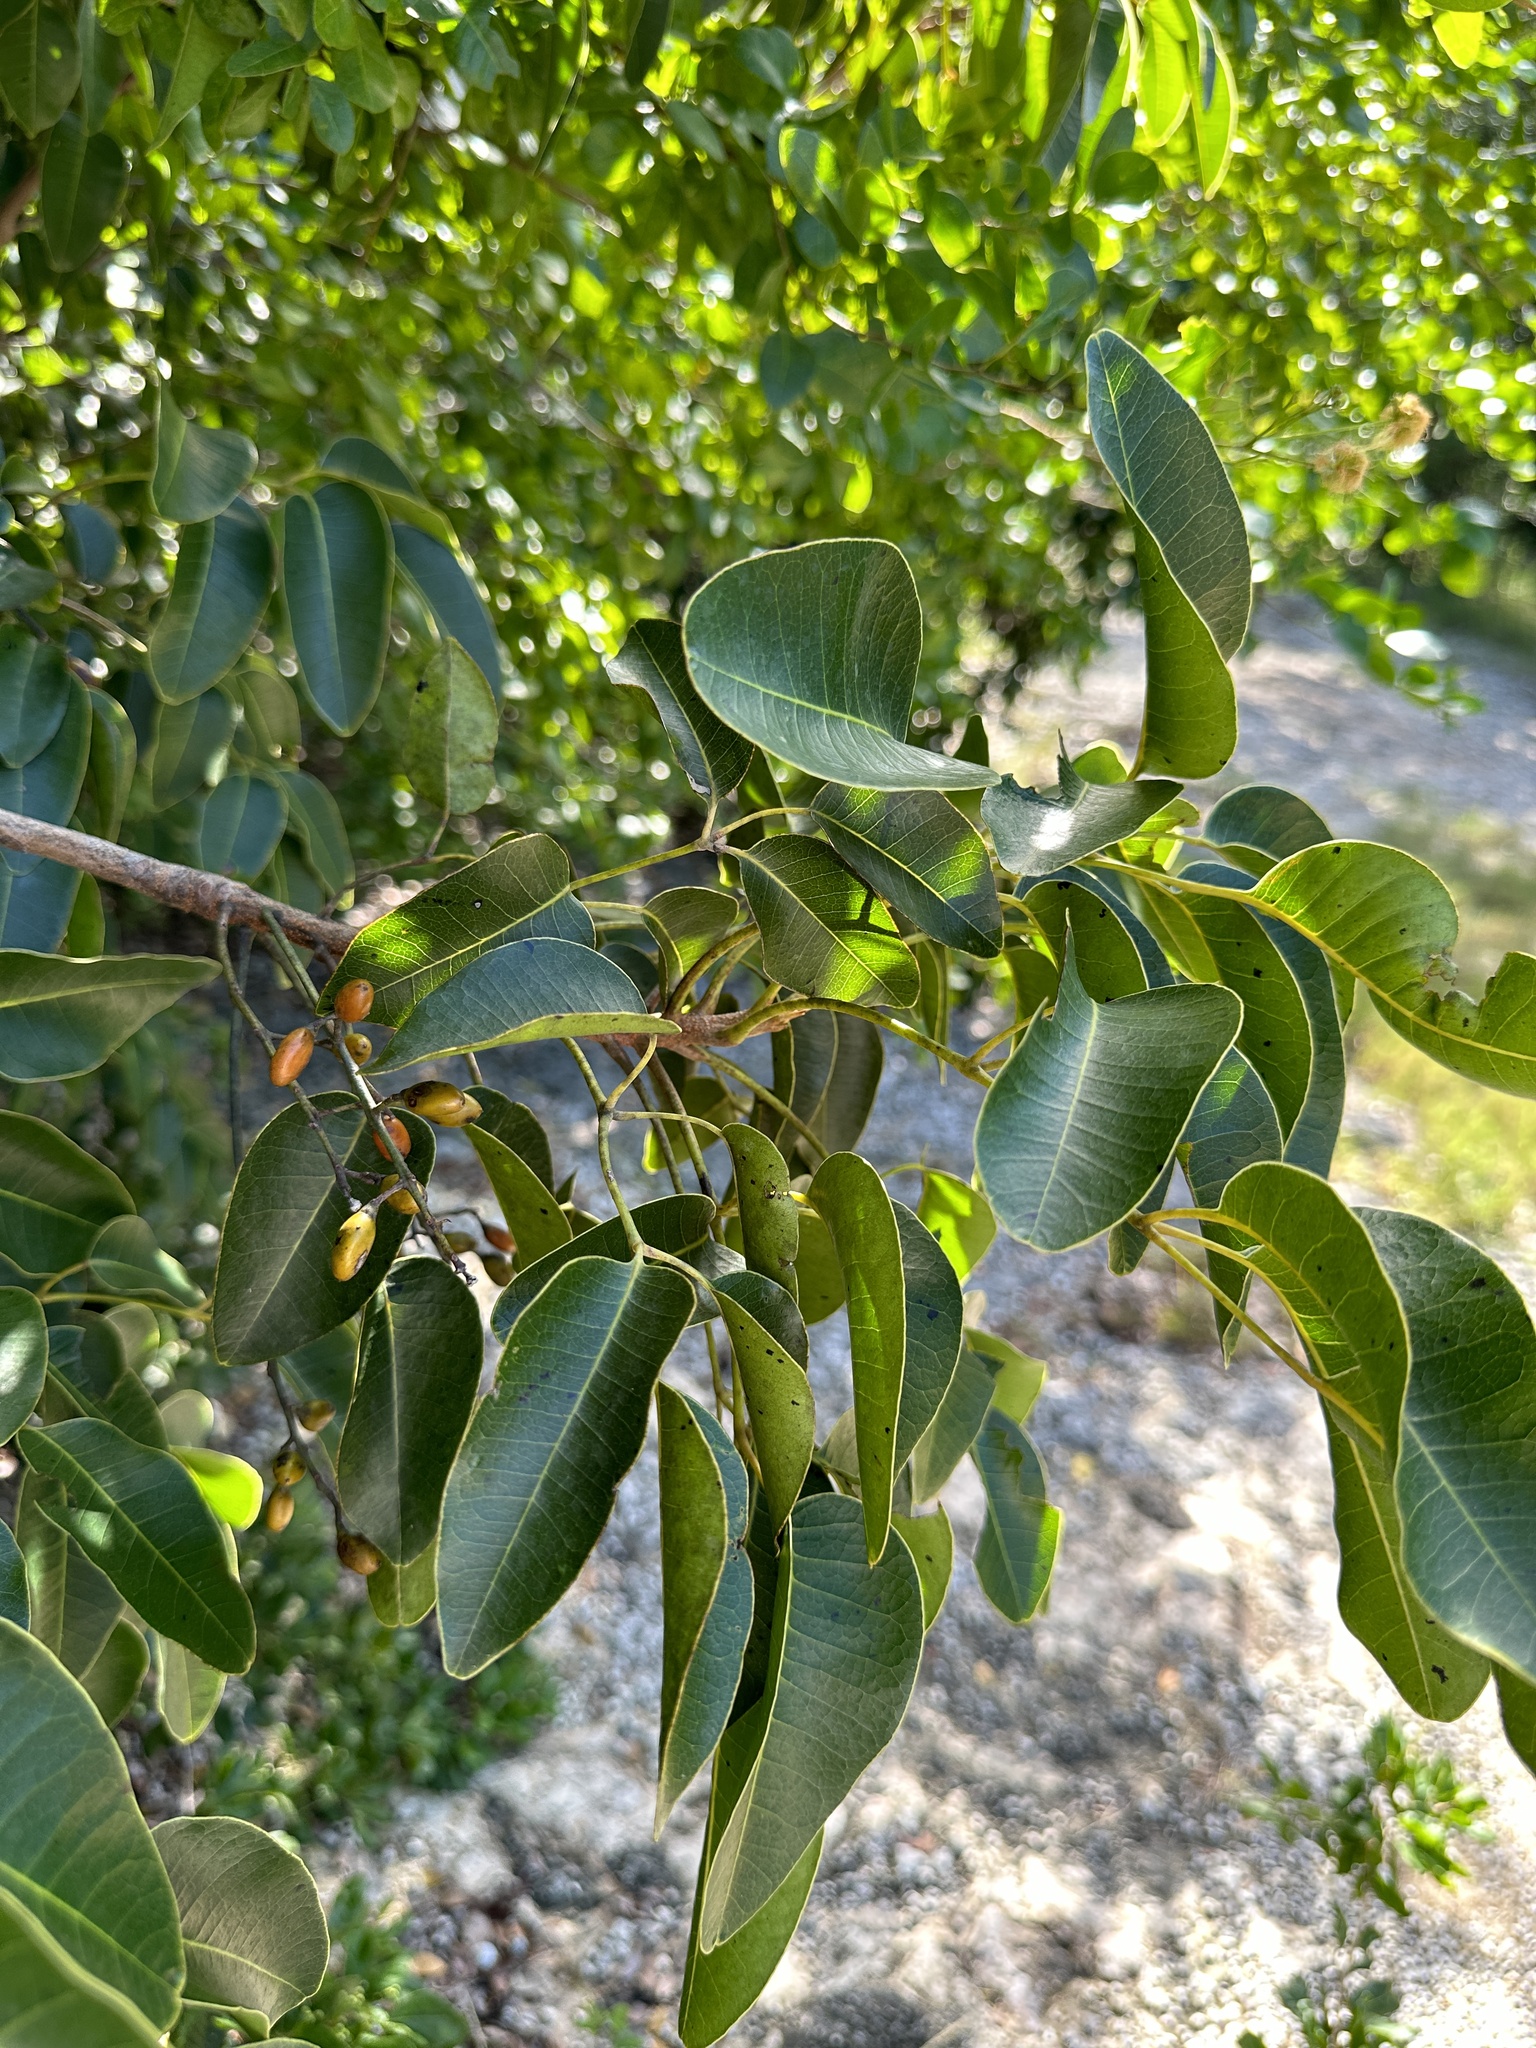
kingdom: Plantae
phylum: Tracheophyta
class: Magnoliopsida
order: Sapindales
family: Anacardiaceae
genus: Metopium
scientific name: Metopium toxiferum
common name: Florida poisontree
